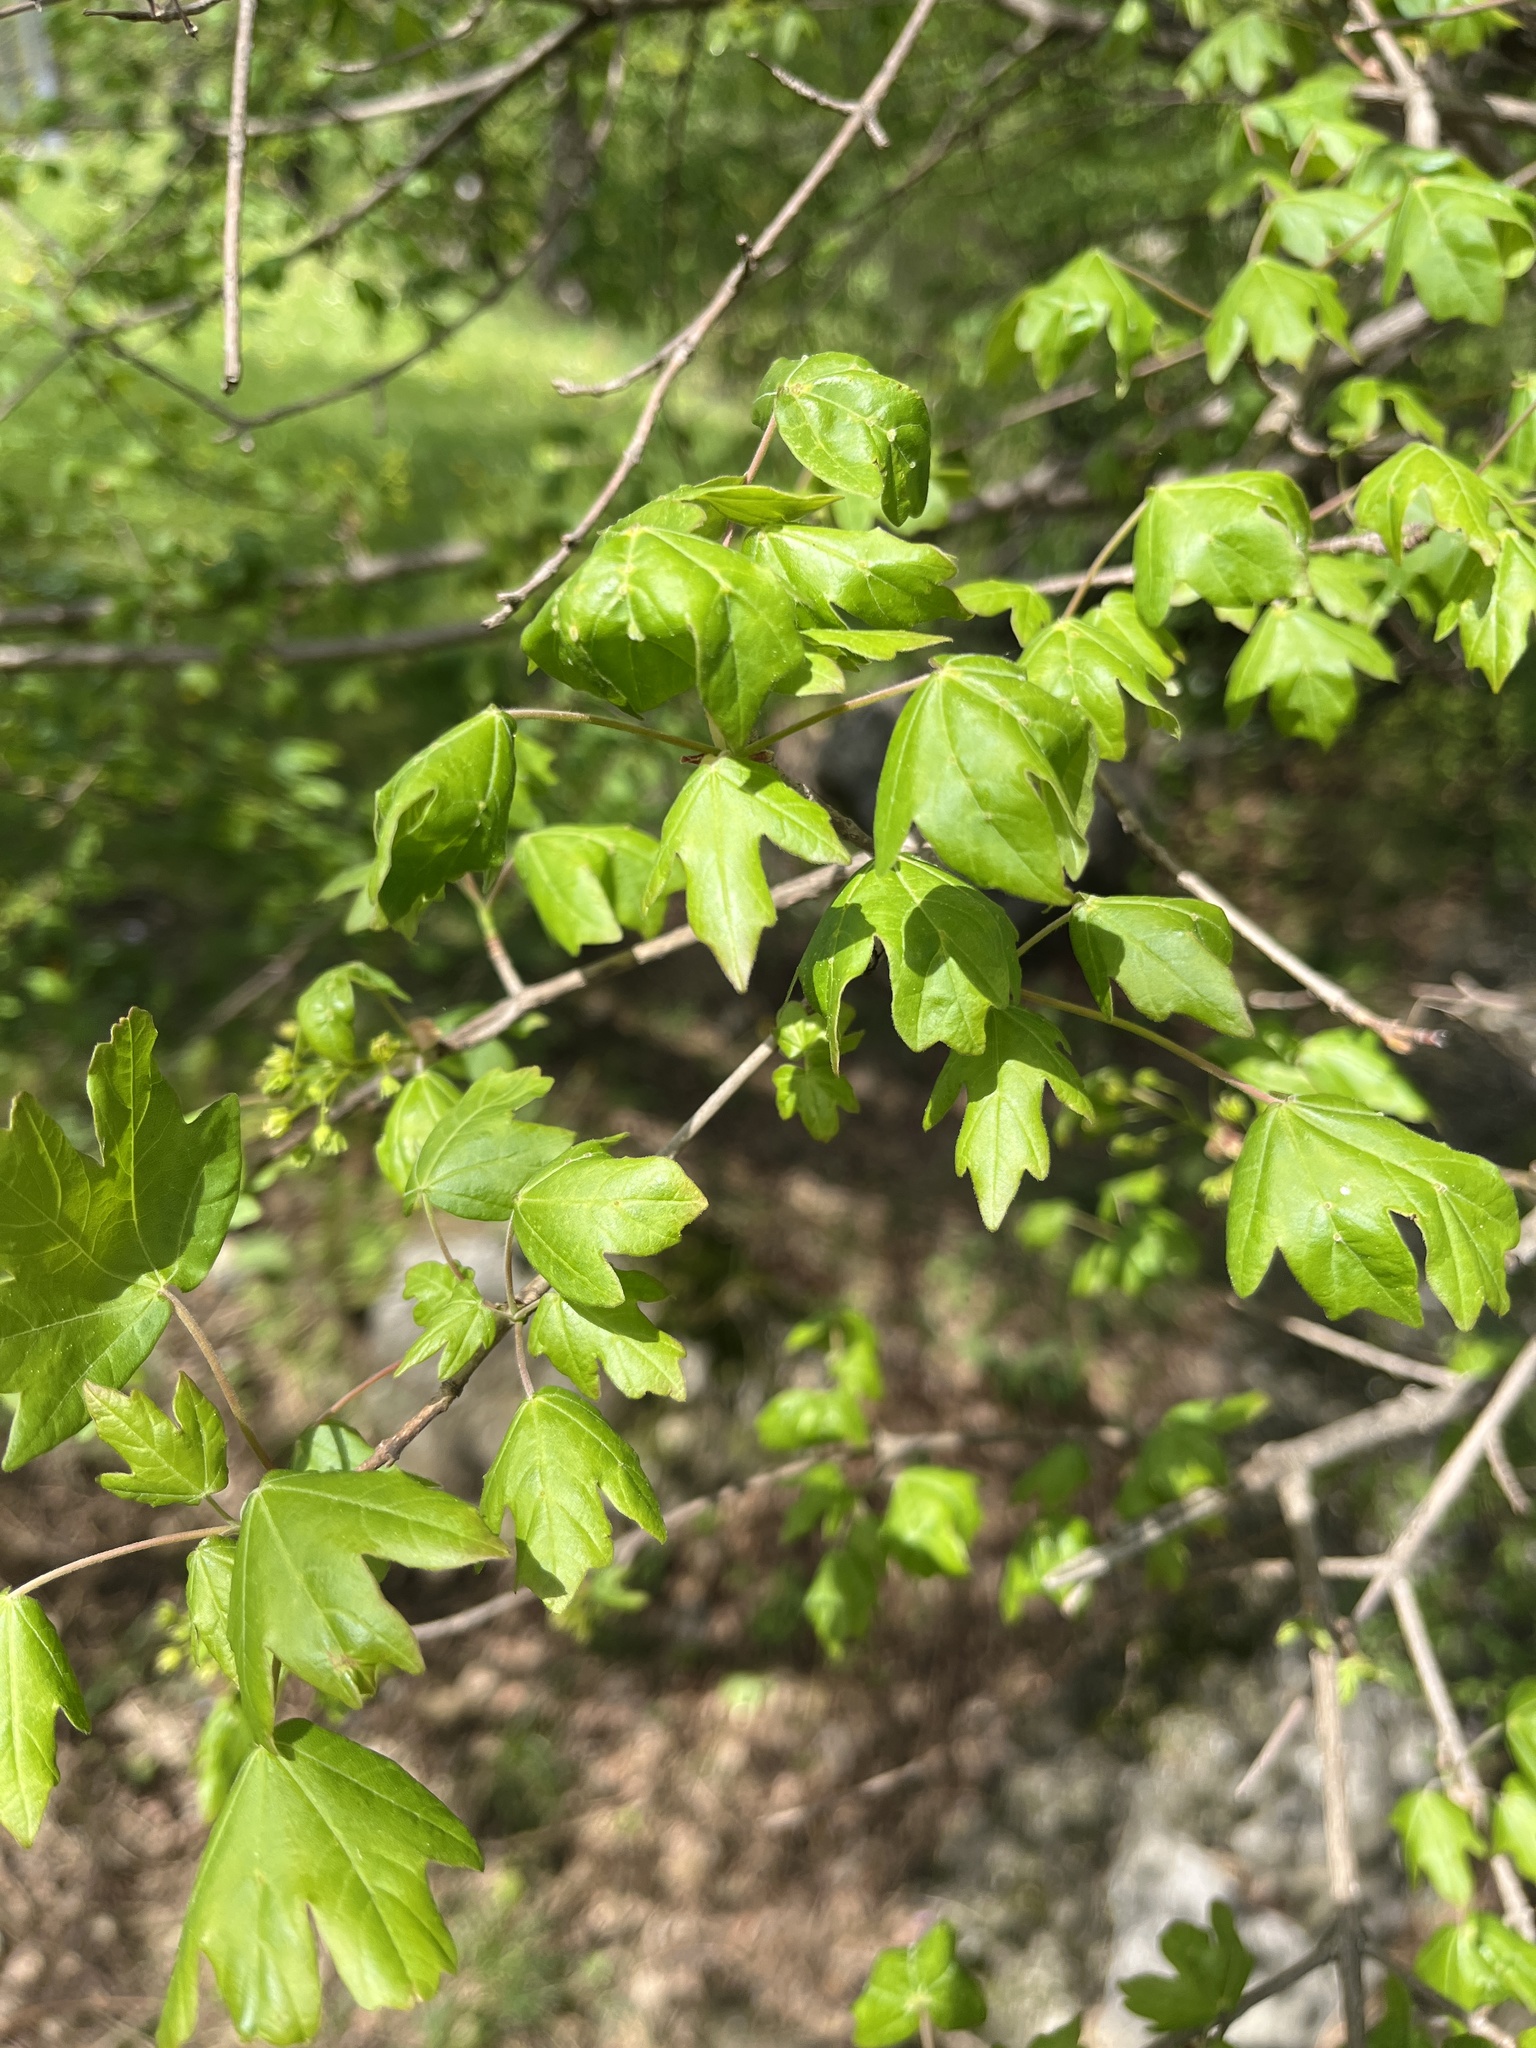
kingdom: Plantae
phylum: Tracheophyta
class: Magnoliopsida
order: Sapindales
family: Sapindaceae
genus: Acer
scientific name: Acer campestre
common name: Field maple
